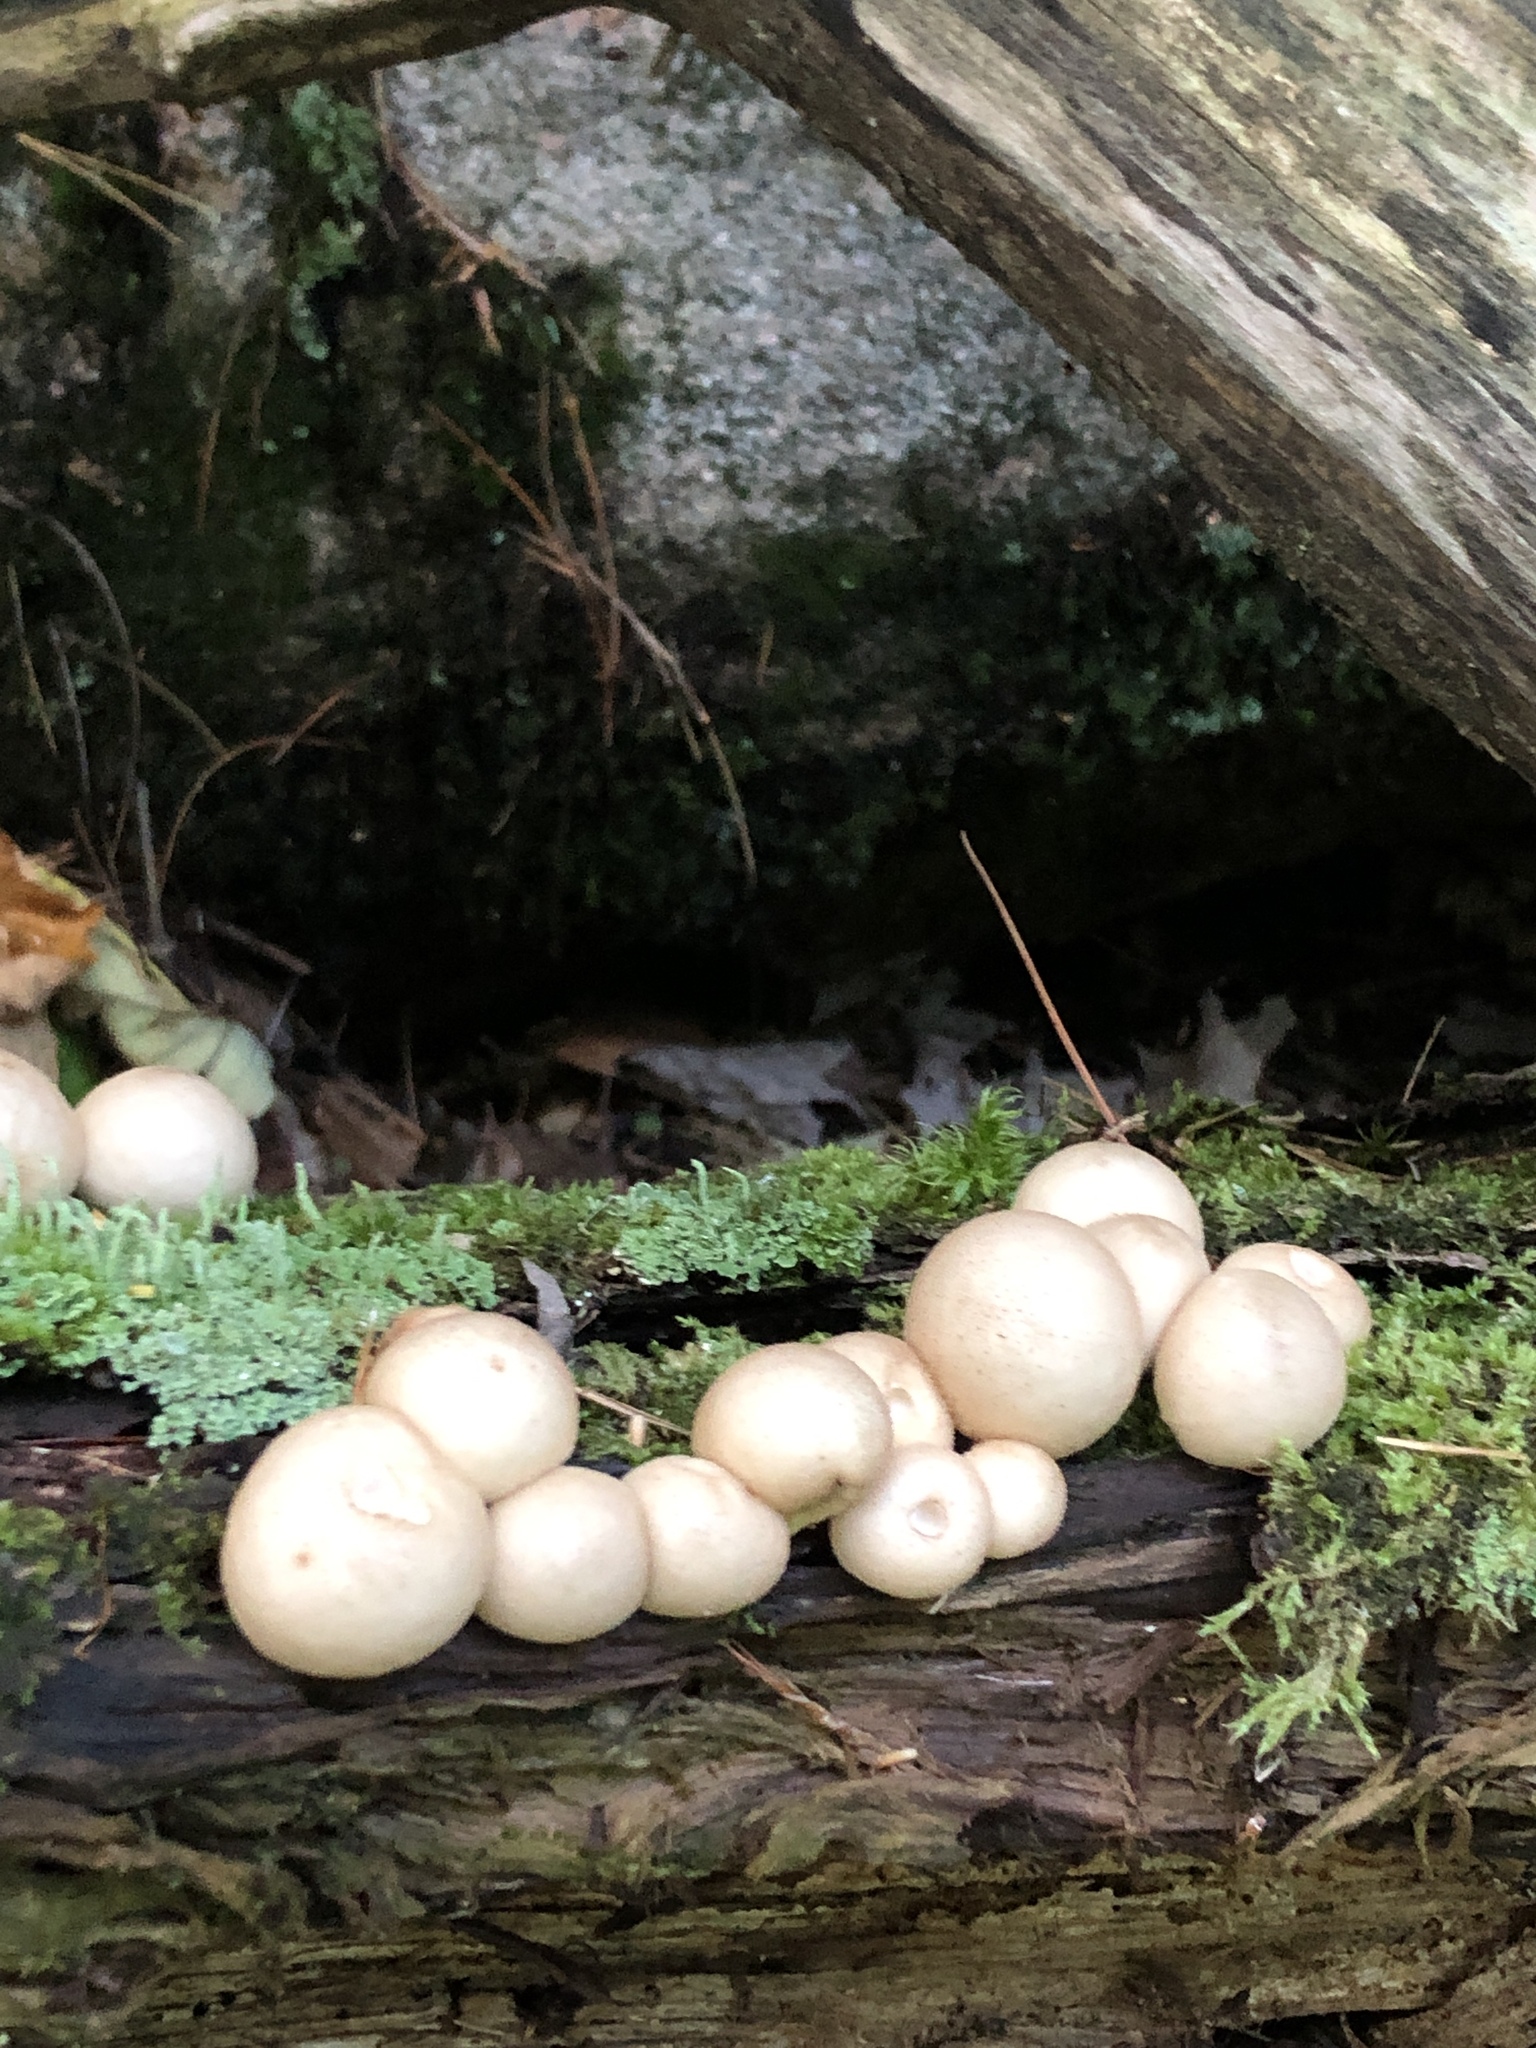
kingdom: Fungi
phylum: Basidiomycota
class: Agaricomycetes
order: Agaricales
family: Lycoperdaceae
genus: Apioperdon
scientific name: Apioperdon pyriforme
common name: Pear-shaped puffball
